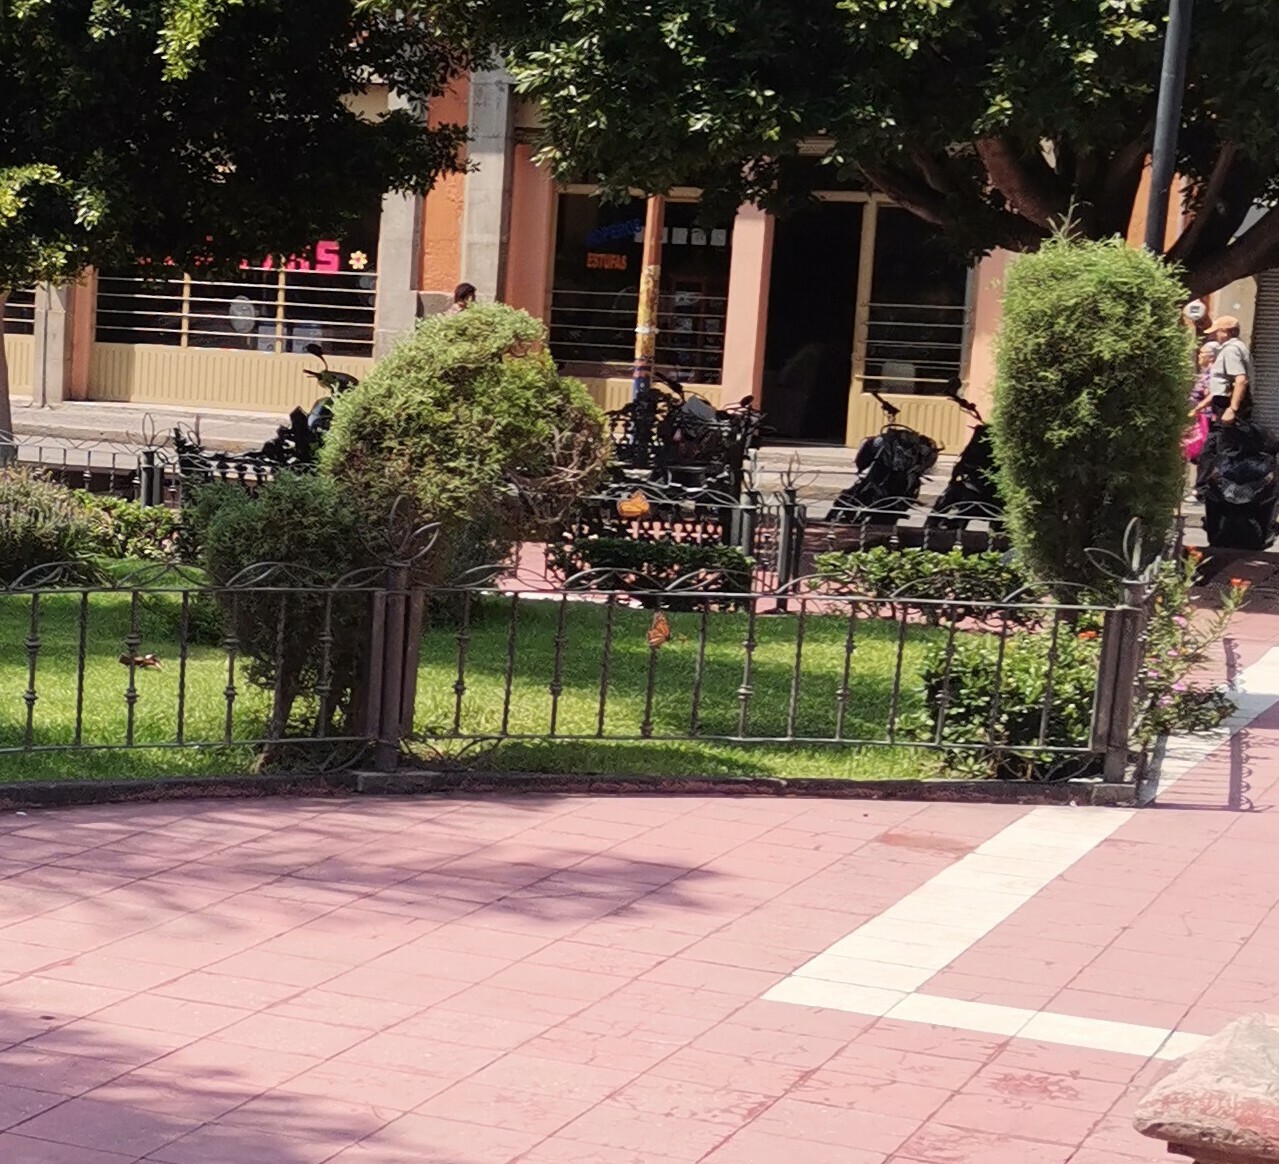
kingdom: Animalia
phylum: Arthropoda
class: Insecta
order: Lepidoptera
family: Nymphalidae
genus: Danaus
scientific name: Danaus plexippus
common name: Monarch
